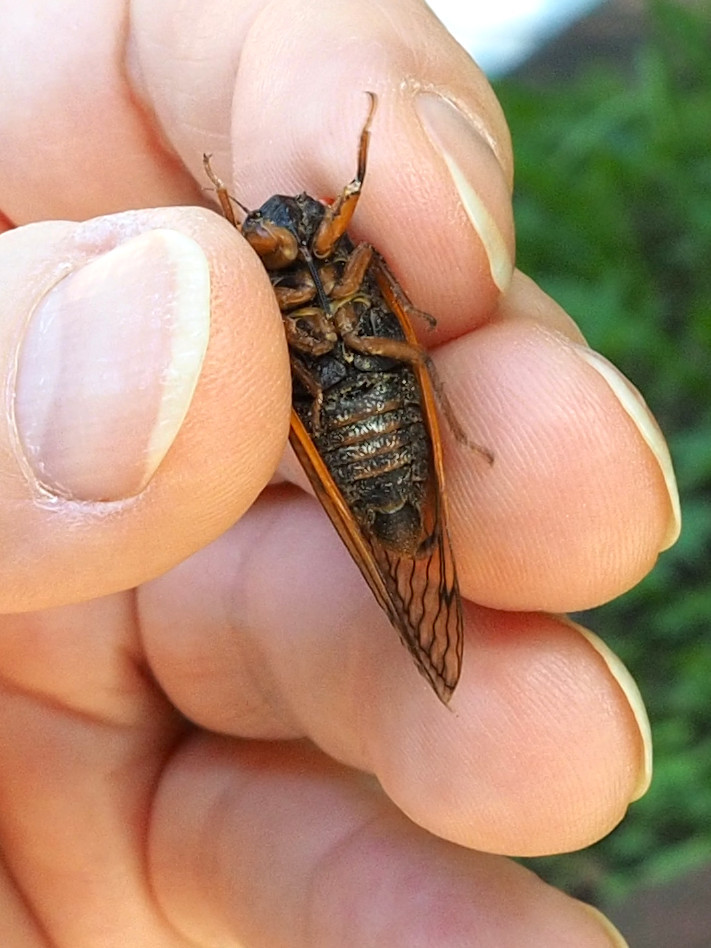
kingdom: Animalia
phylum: Arthropoda
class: Insecta
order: Hemiptera
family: Cicadidae
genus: Magicicada
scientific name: Magicicada septendecula
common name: Decula periodical cicada
